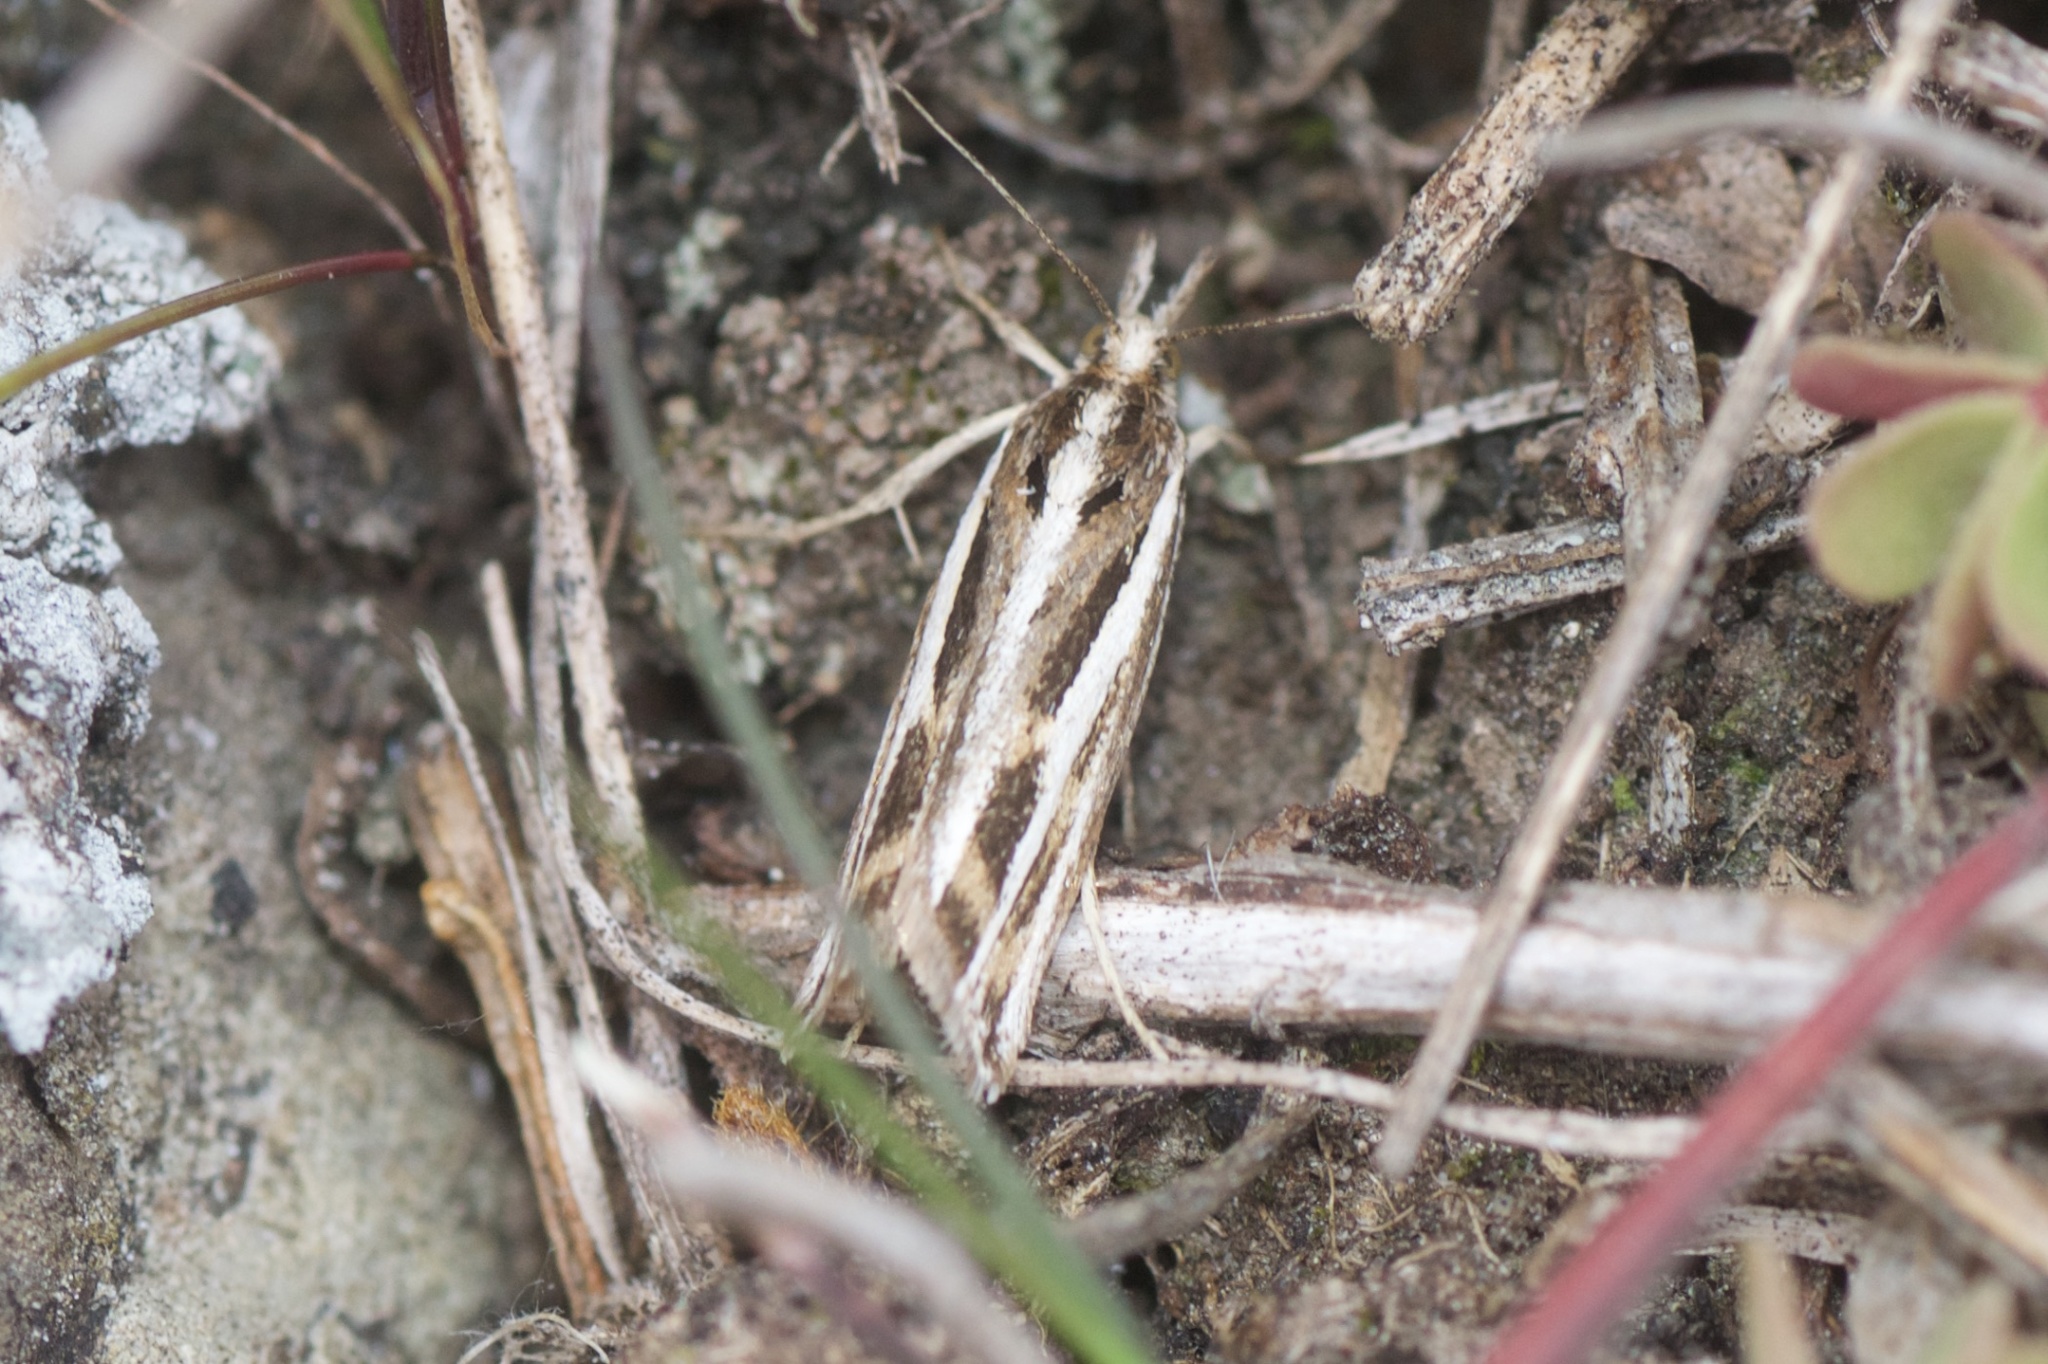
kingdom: Animalia
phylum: Arthropoda
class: Insecta
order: Lepidoptera
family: Crambidae
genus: Orocrambus
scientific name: Orocrambus corruptus
